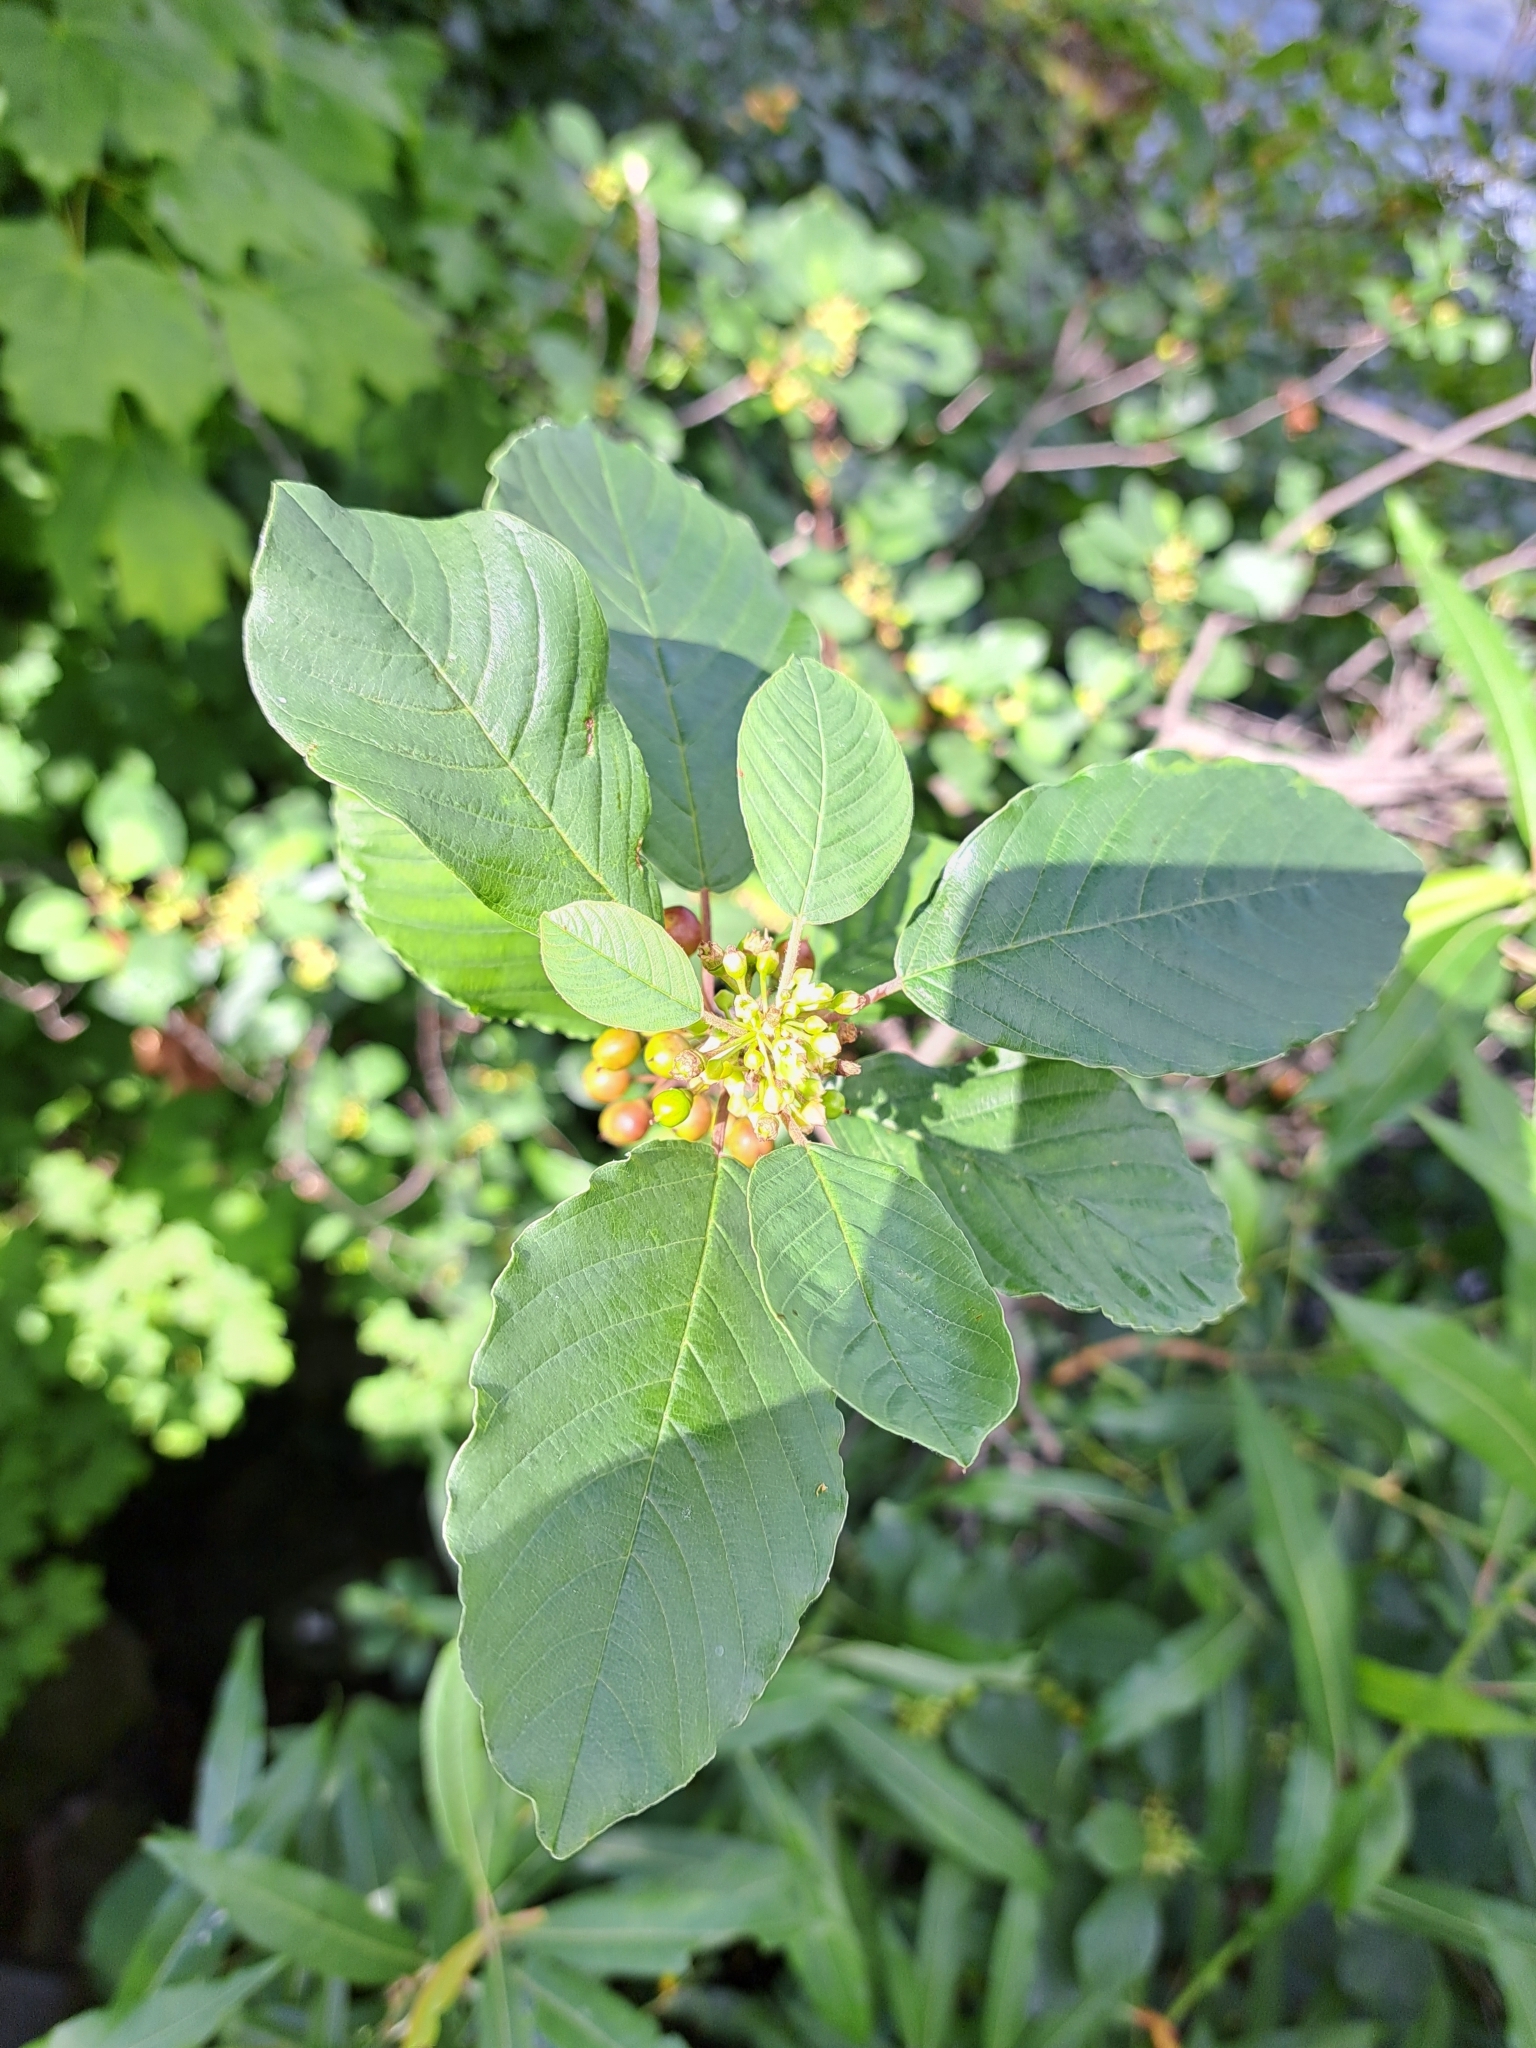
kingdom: Plantae
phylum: Tracheophyta
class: Magnoliopsida
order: Rosales
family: Rhamnaceae
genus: Frangula
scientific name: Frangula alnus
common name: Alder buckthorn
